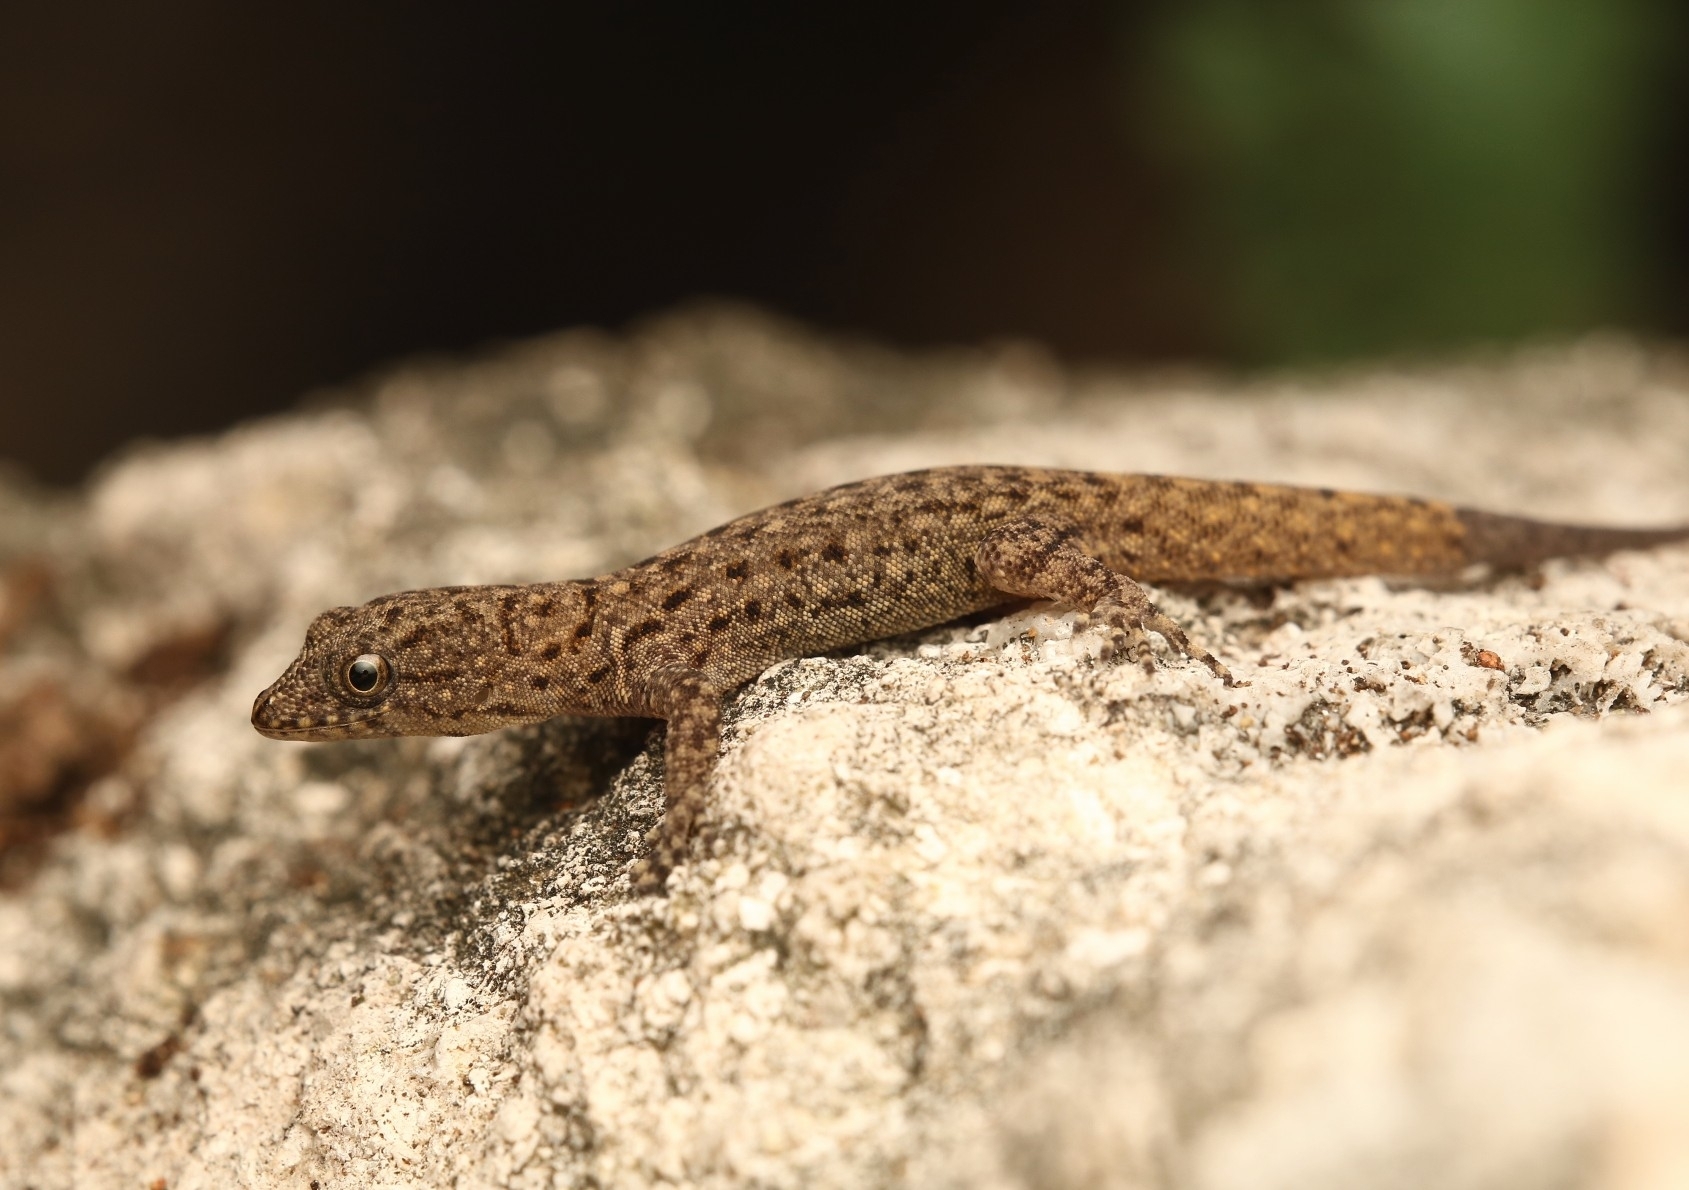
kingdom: Animalia
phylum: Chordata
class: Squamata
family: Sphaerodactylidae
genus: Gonatodes
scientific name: Gonatodes vittatus
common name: Wiegmann's striped gecko
